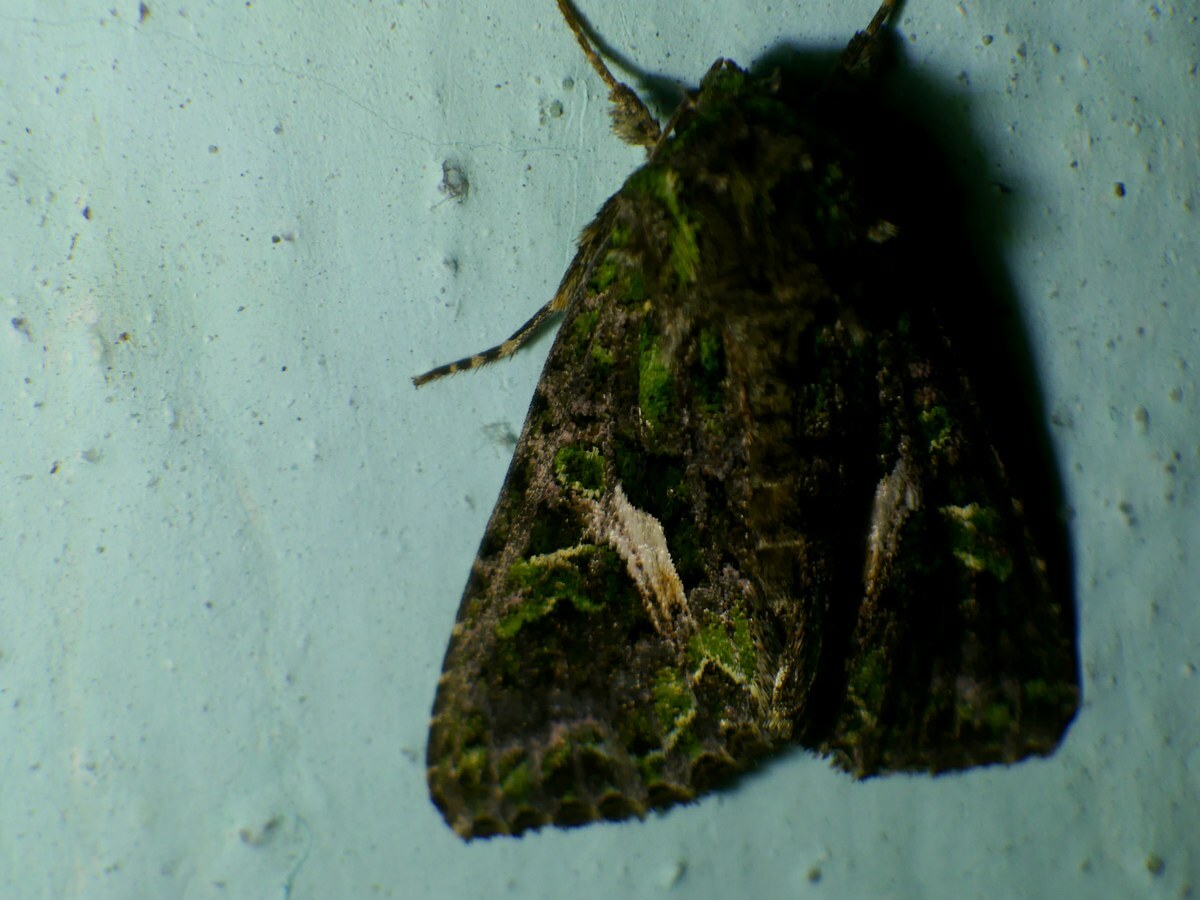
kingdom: Animalia
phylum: Arthropoda
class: Insecta
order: Lepidoptera
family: Noctuidae
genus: Trachea
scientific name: Trachea atriplicis
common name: Orache moth
